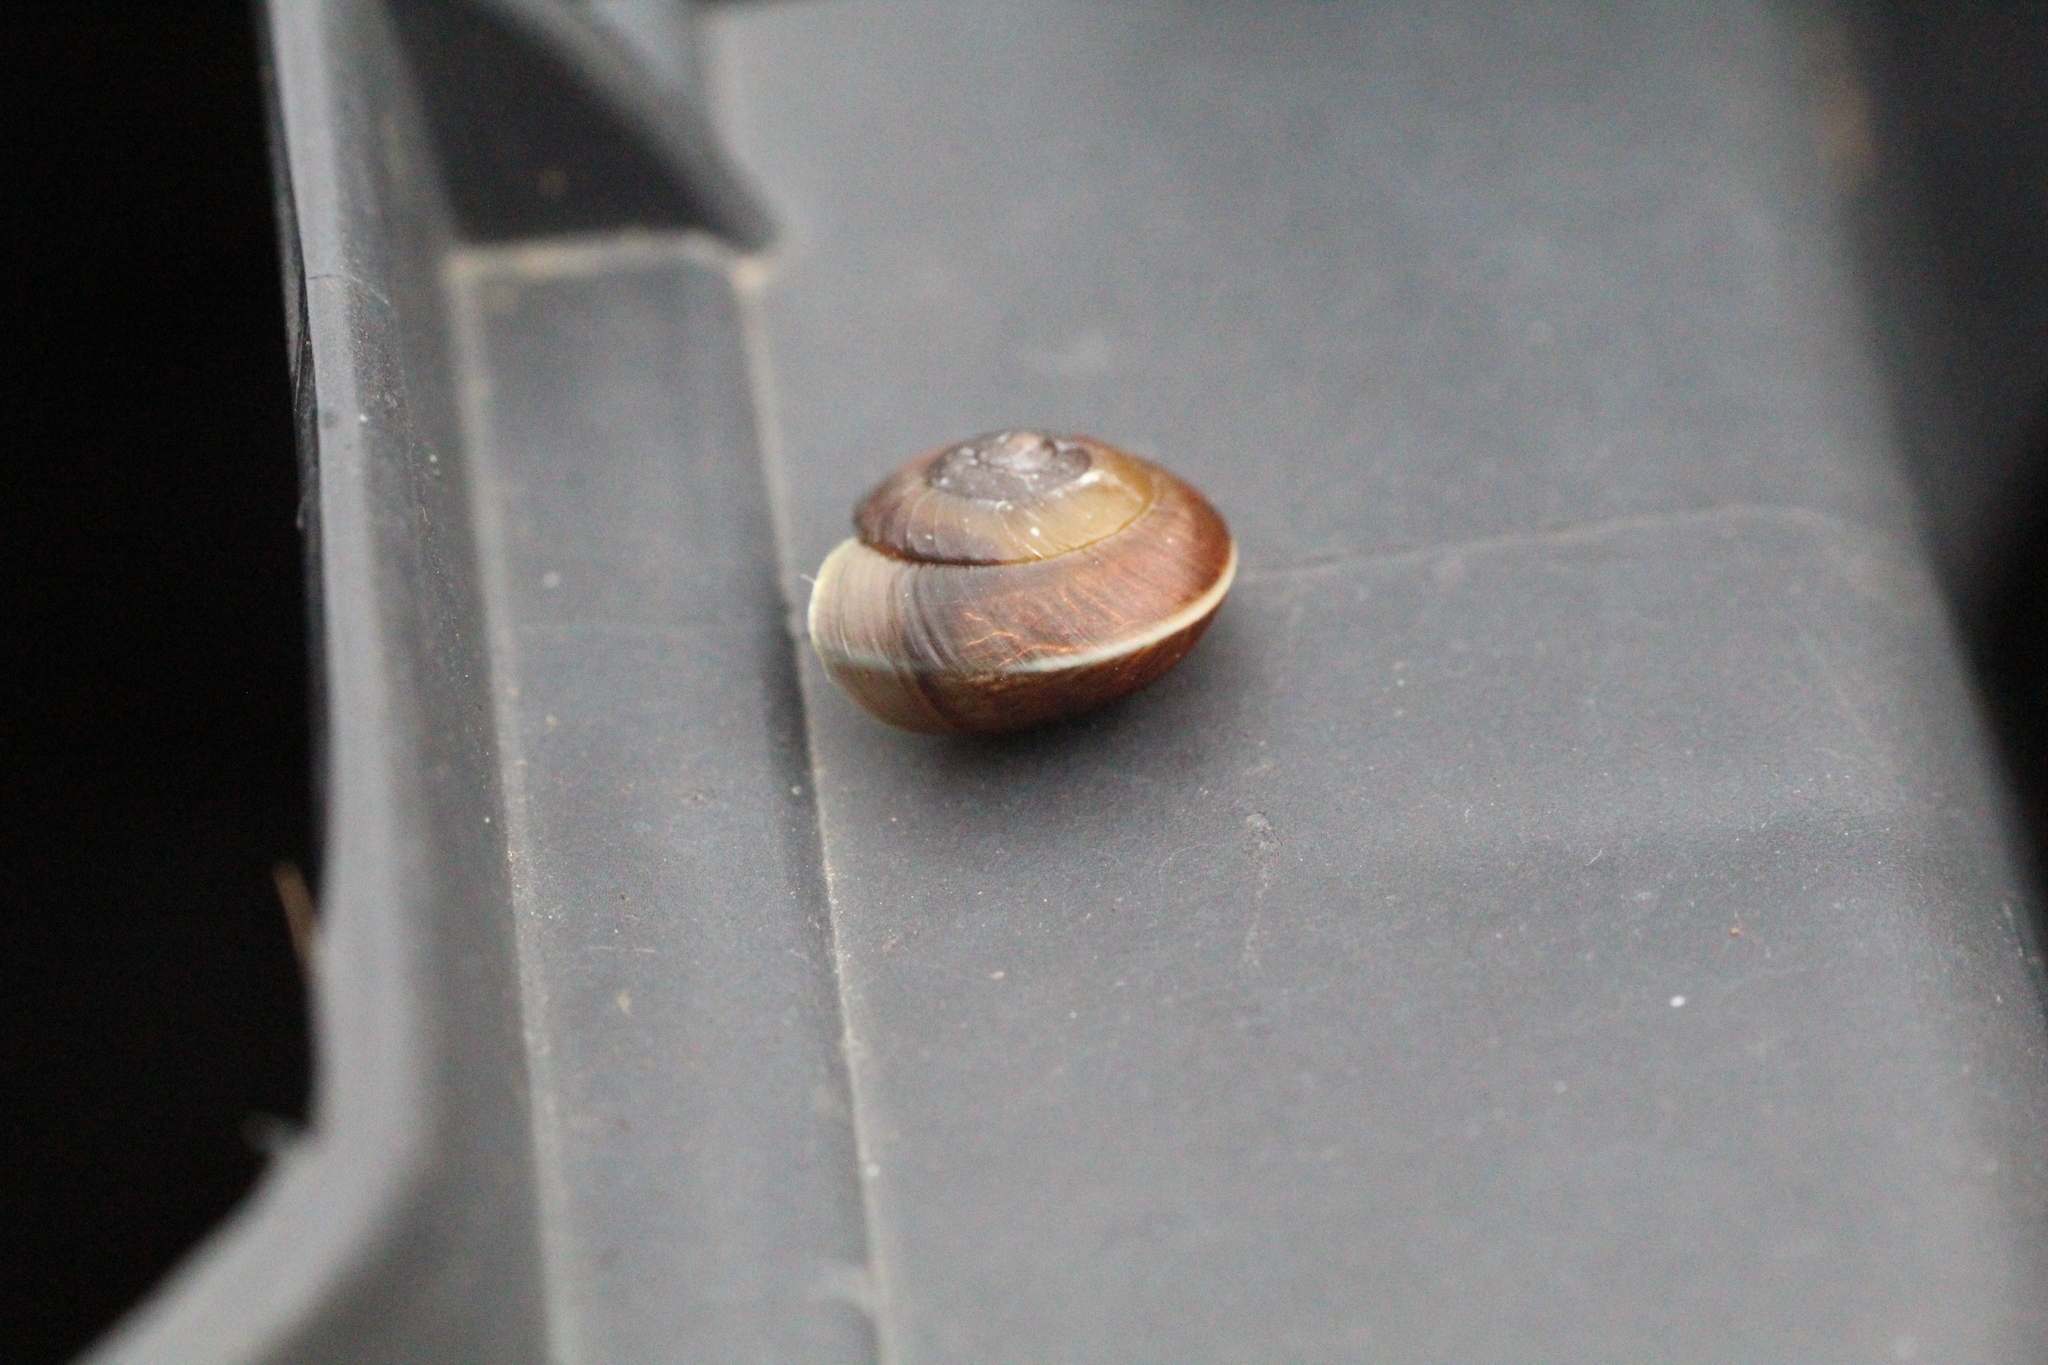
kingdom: Animalia
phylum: Mollusca
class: Gastropoda
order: Stylommatophora
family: Hygromiidae
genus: Hygromia
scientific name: Hygromia cinctella
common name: Girdled snail
